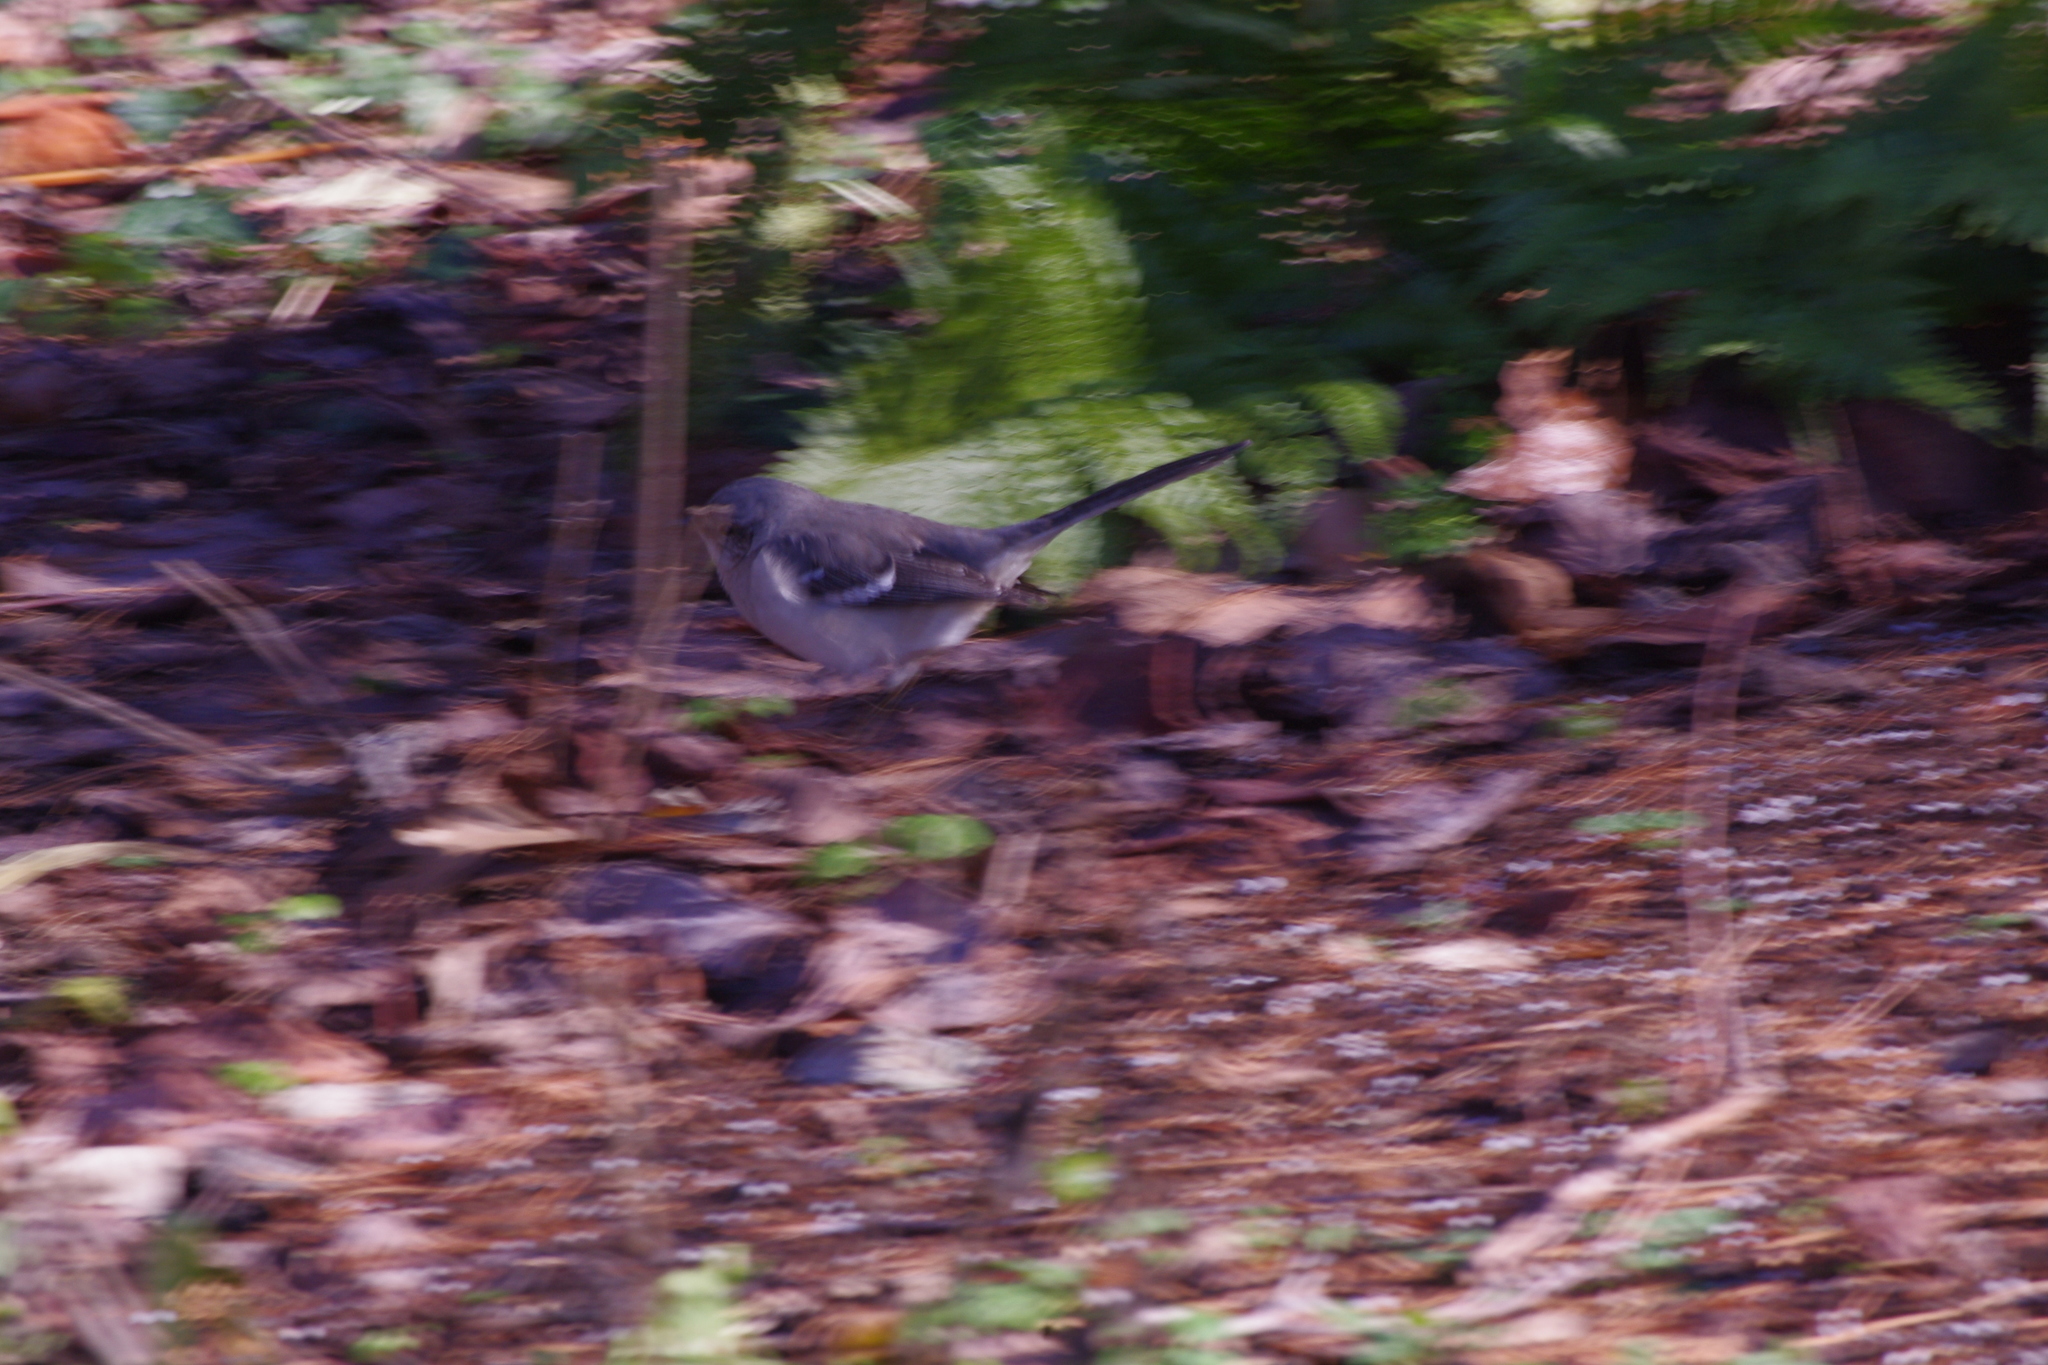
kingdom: Animalia
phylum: Chordata
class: Aves
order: Passeriformes
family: Mimidae
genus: Mimus
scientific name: Mimus polyglottos
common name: Northern mockingbird
